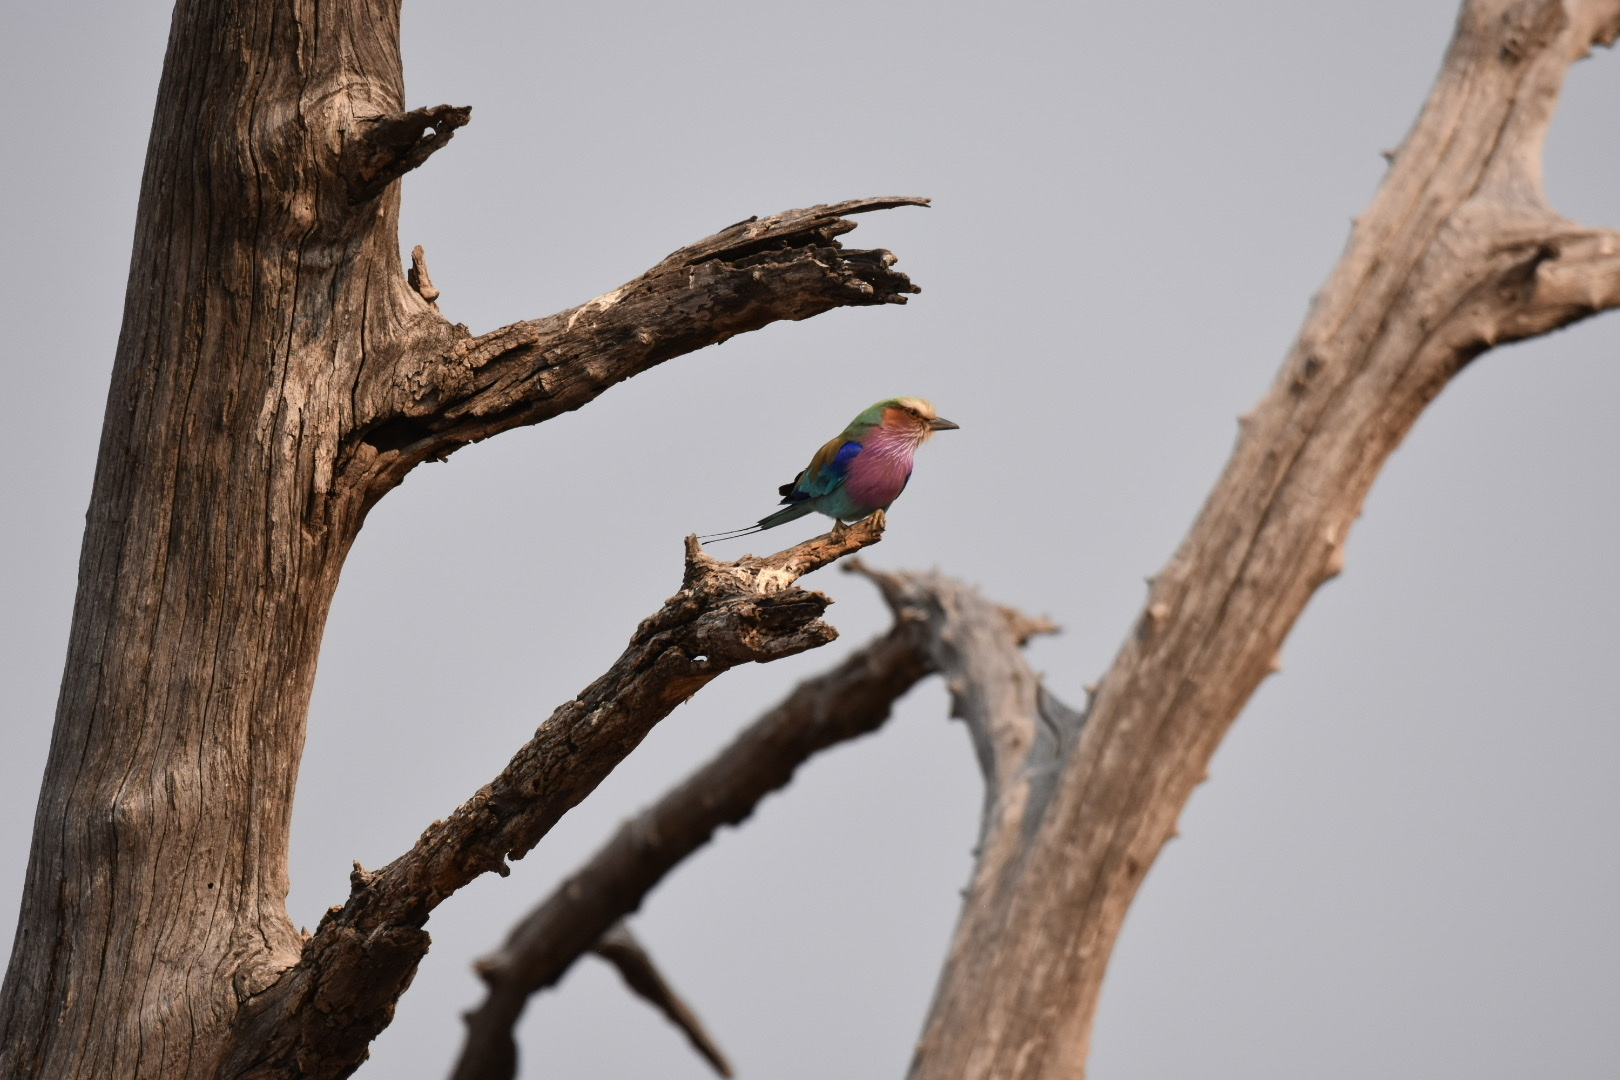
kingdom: Animalia
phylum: Chordata
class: Aves
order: Coraciiformes
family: Coraciidae
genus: Coracias
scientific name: Coracias caudatus
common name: Lilac-breasted roller
